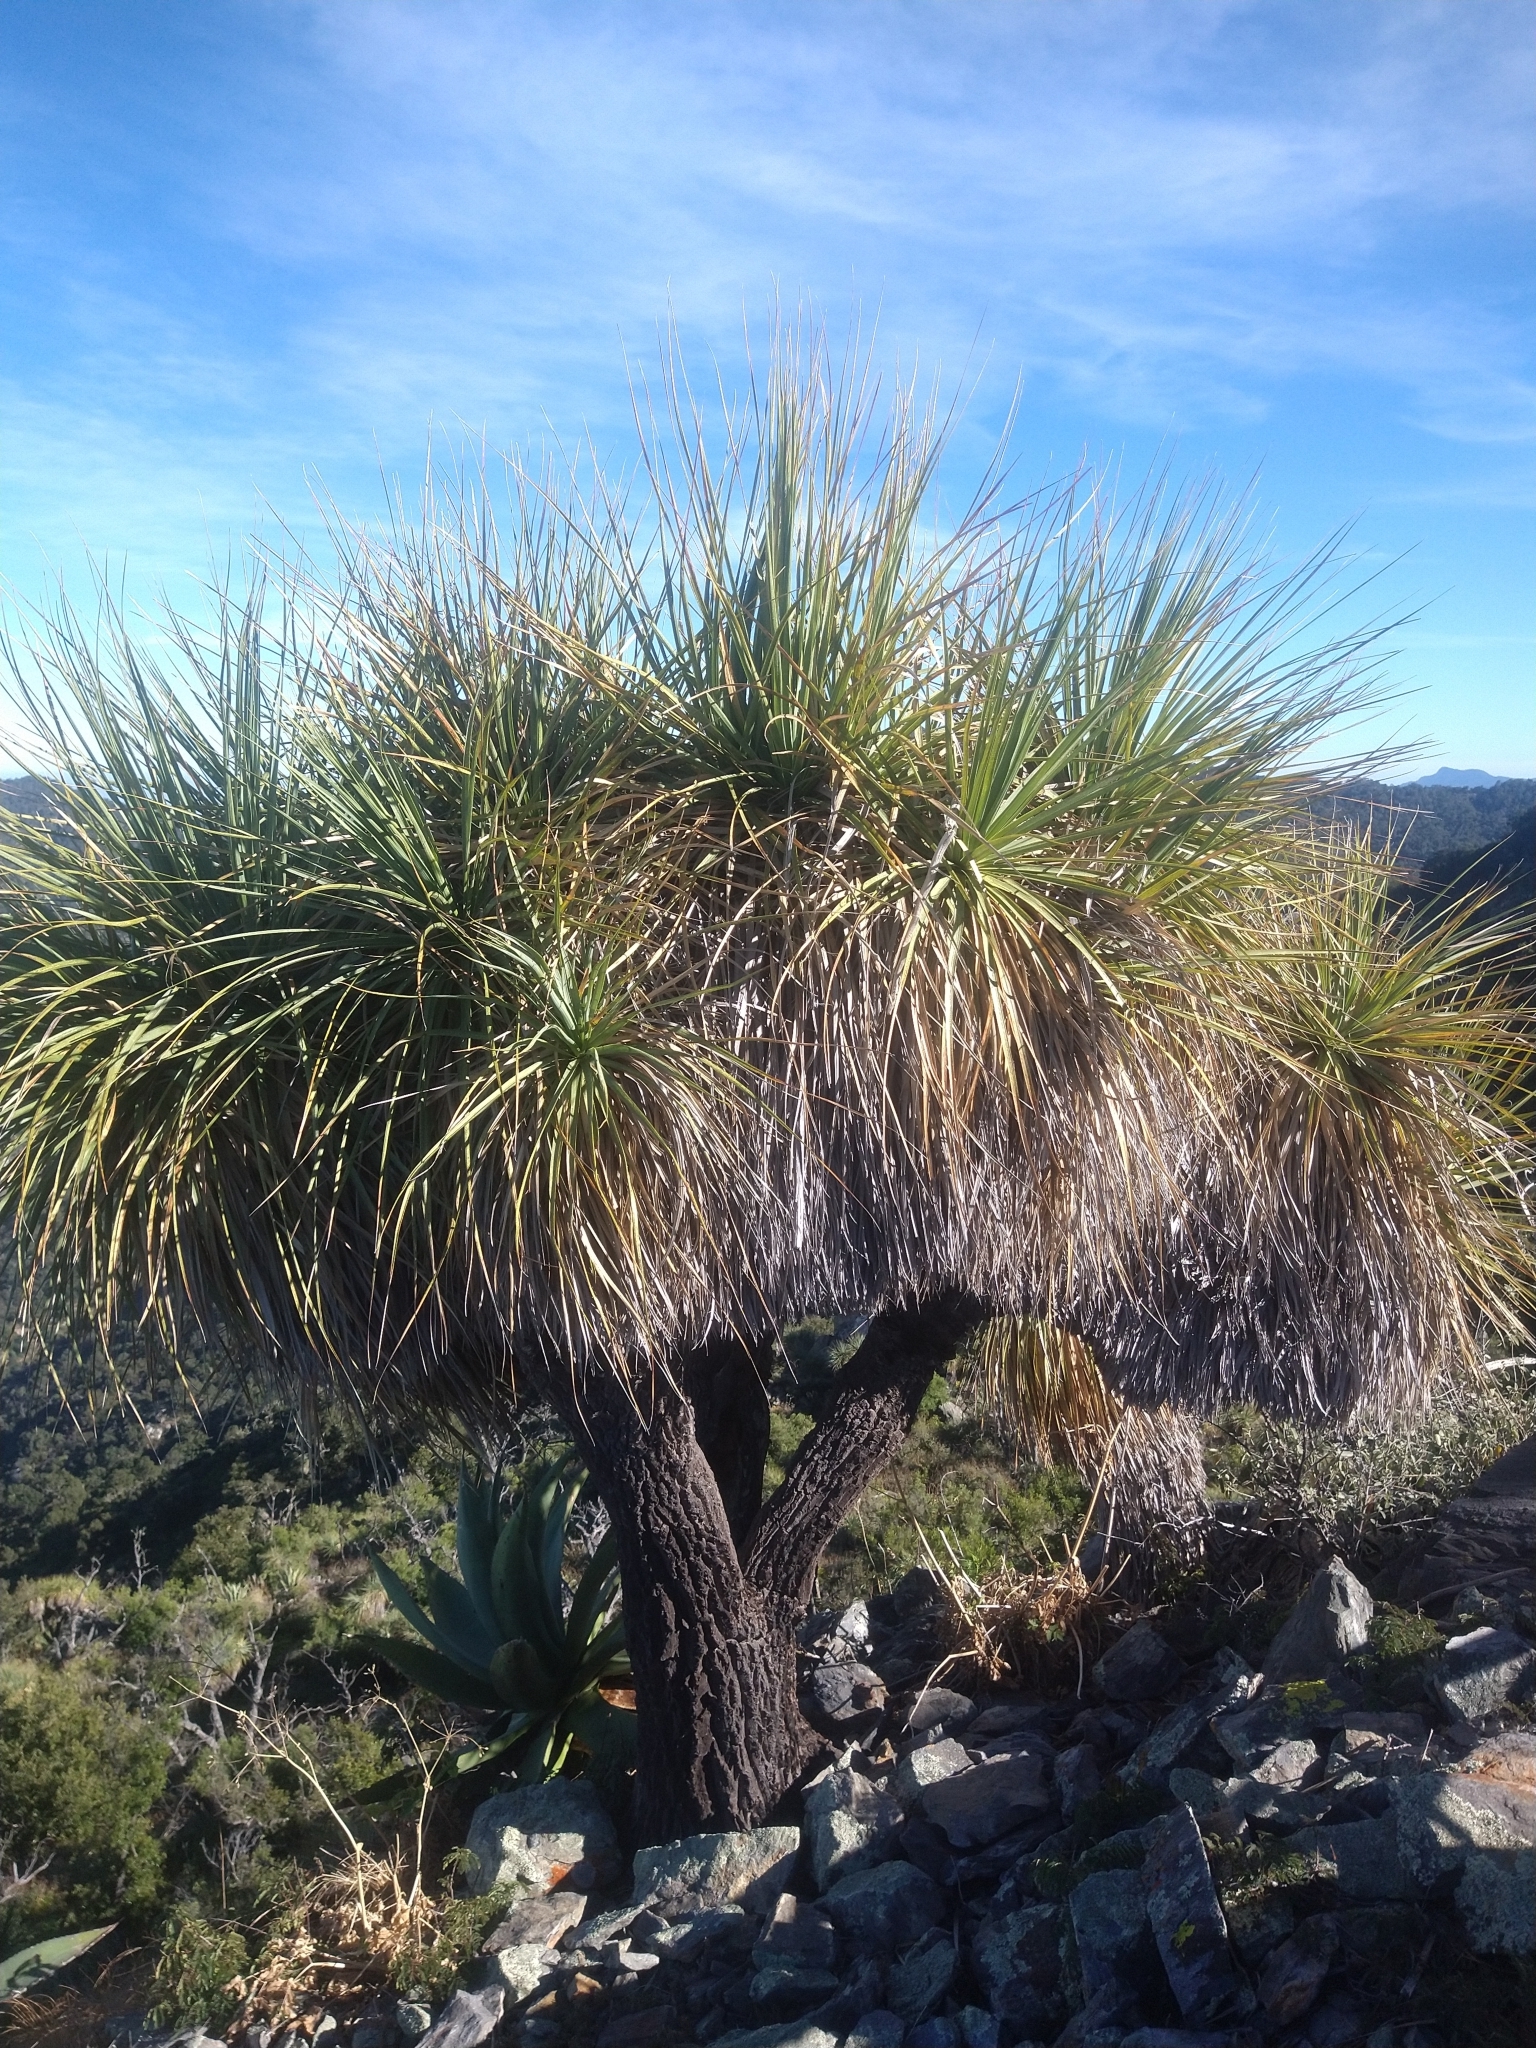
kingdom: Plantae
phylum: Tracheophyta
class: Liliopsida
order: Asparagales
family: Asparagaceae
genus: Nolina
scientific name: Nolina beldingii
